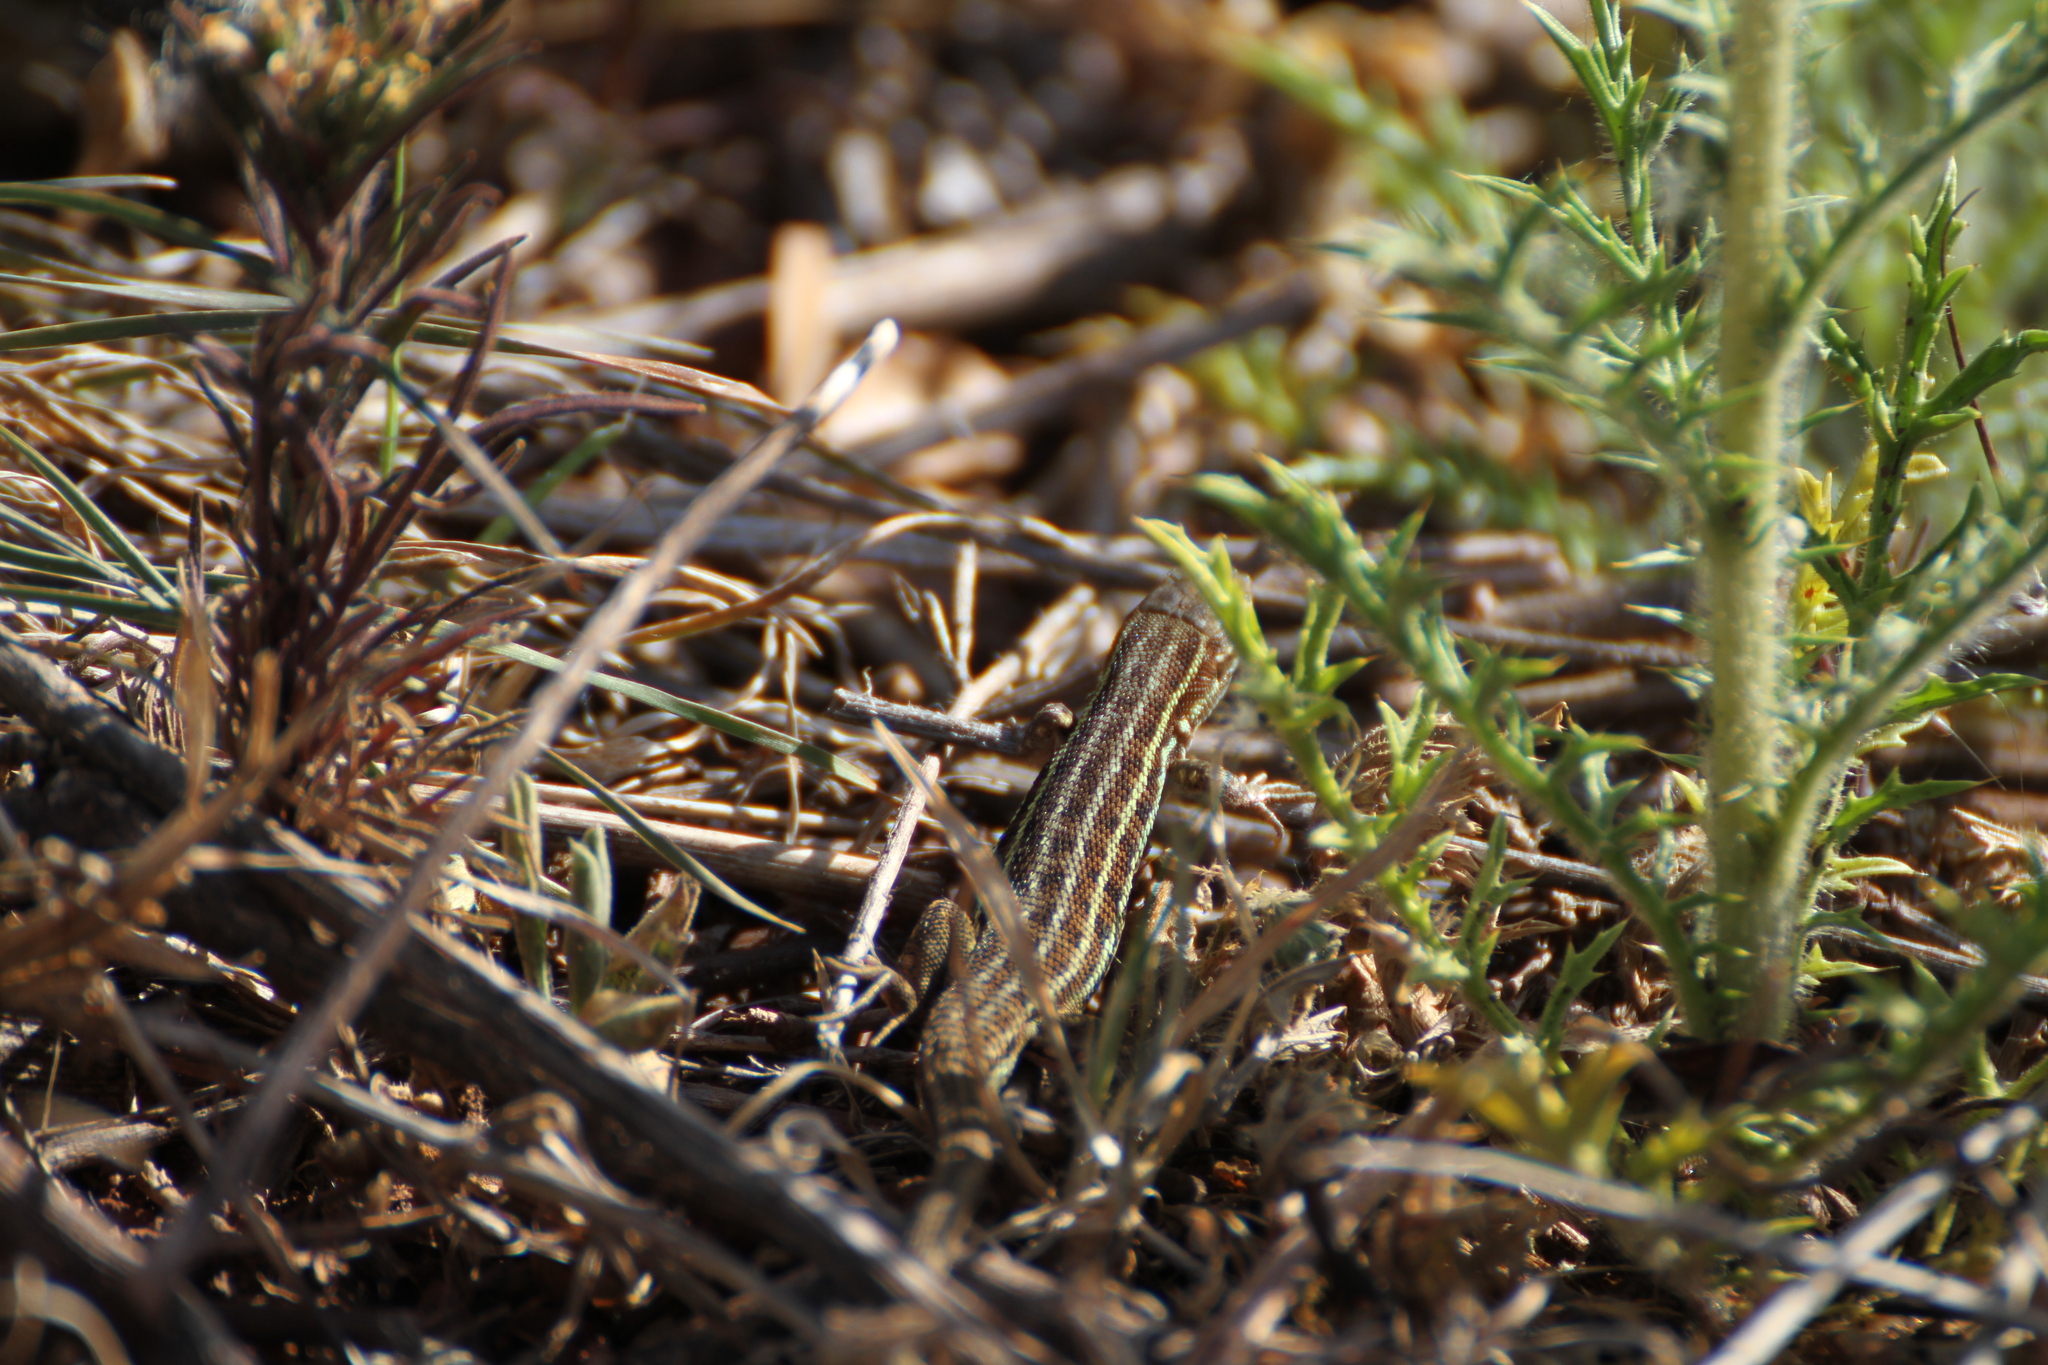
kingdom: Animalia
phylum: Chordata
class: Squamata
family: Lacertidae
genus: Psammodromus
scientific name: Psammodromus edwarsianus
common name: East iberian psammodromus
